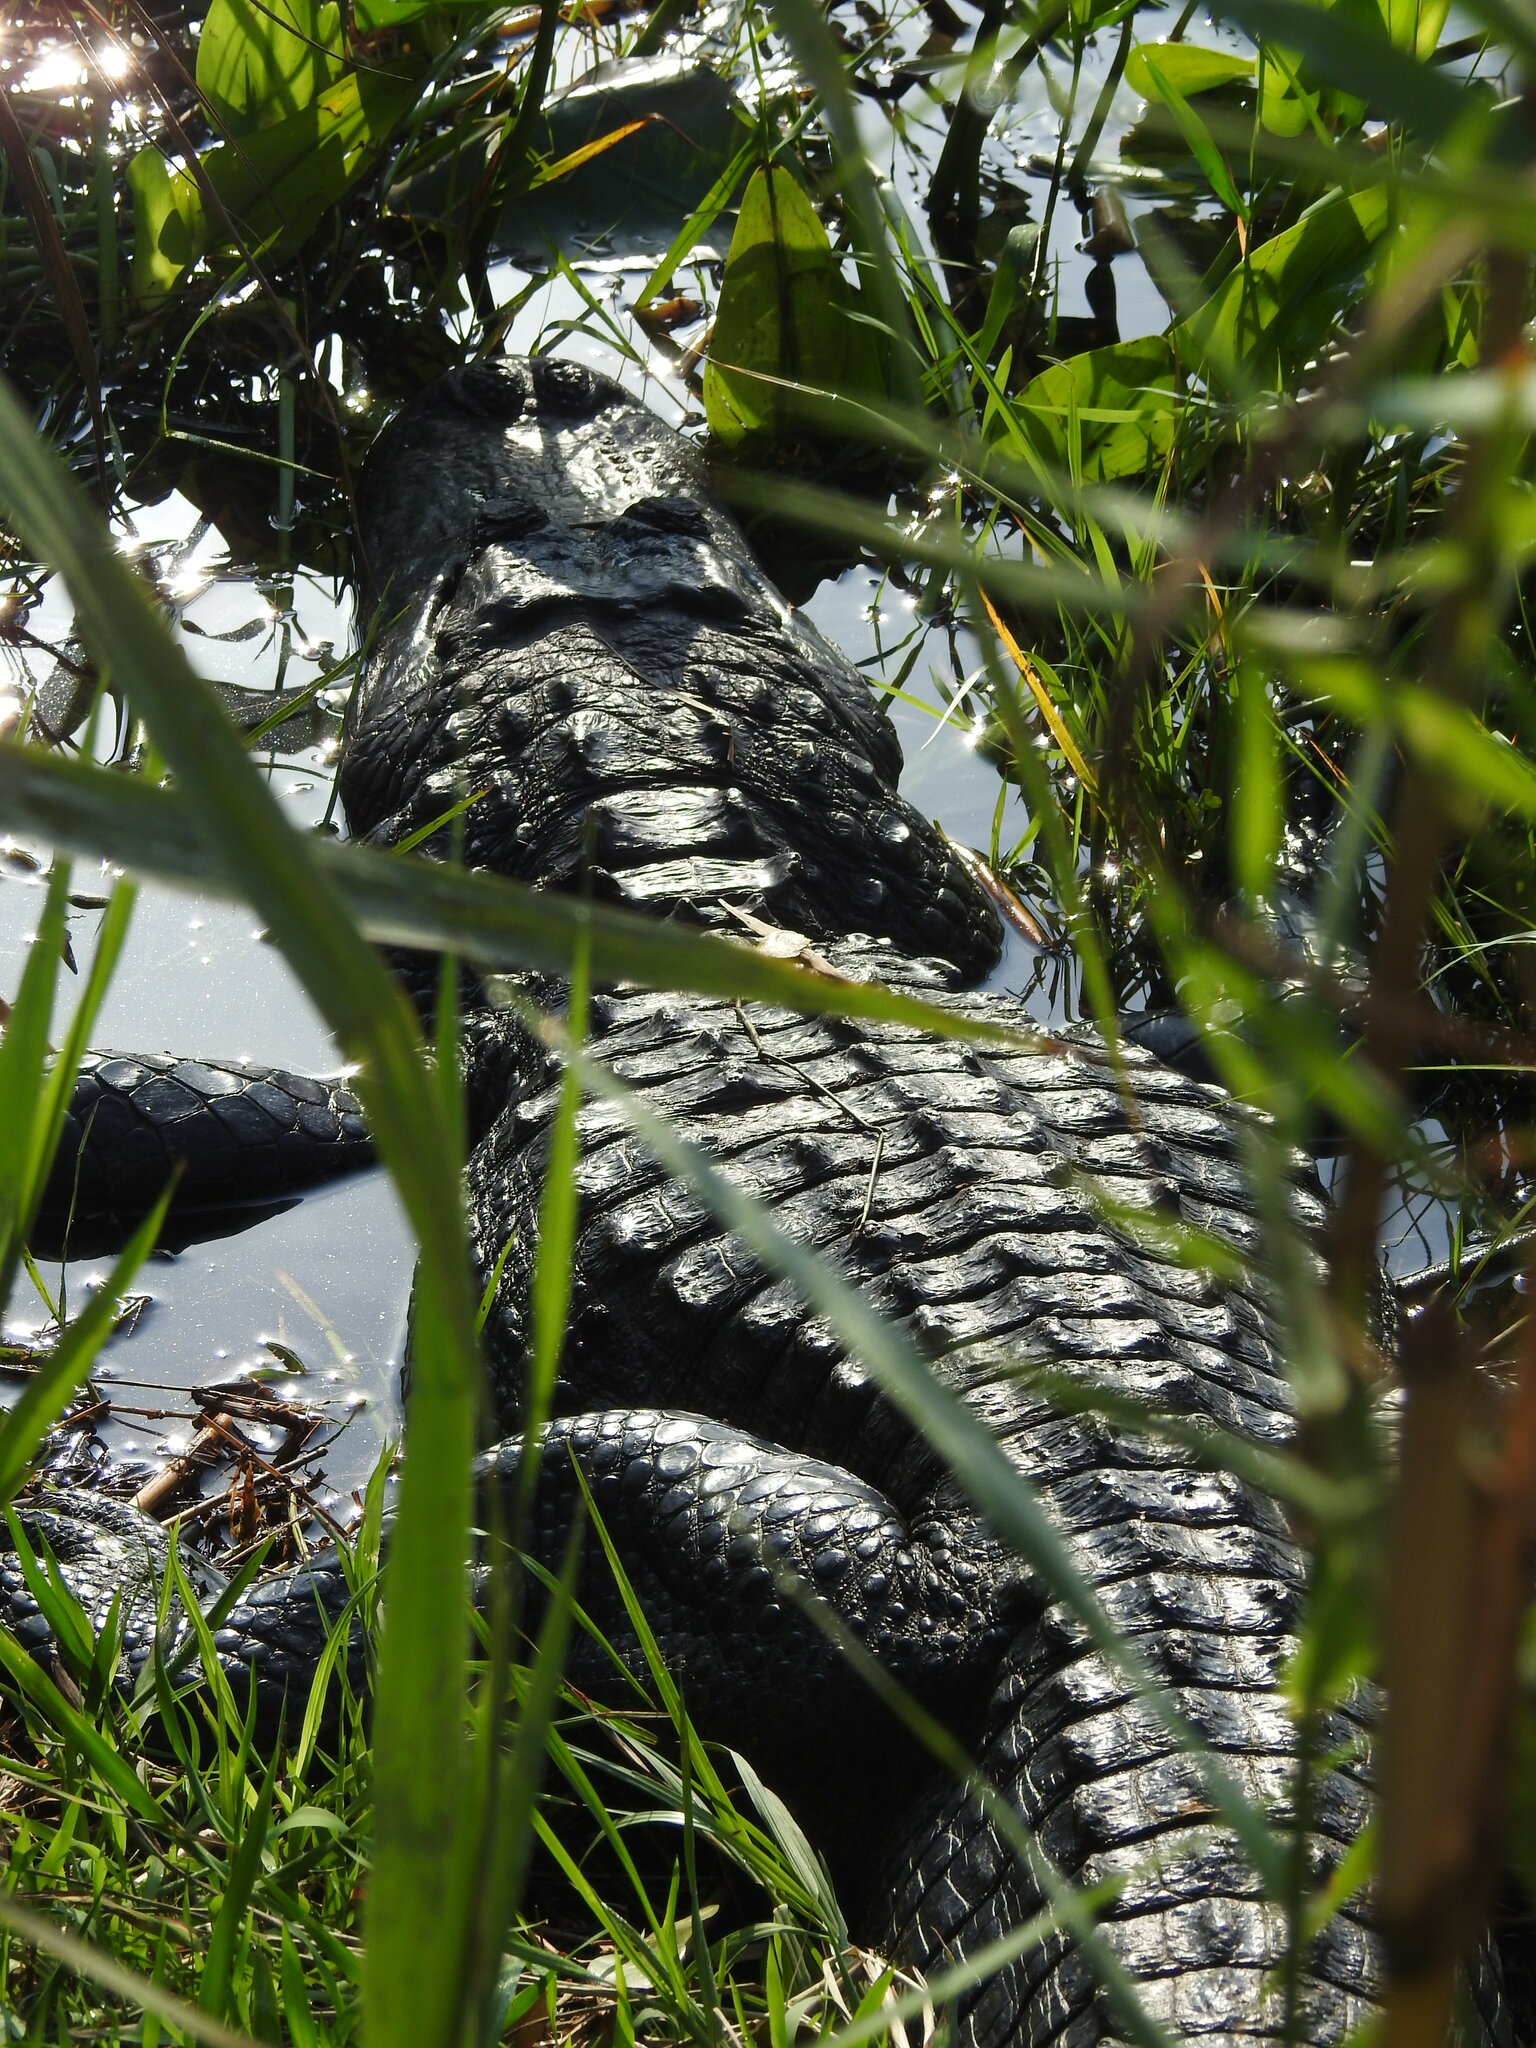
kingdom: Animalia
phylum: Chordata
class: Crocodylia
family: Alligatoridae
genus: Alligator
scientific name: Alligator mississippiensis
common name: American alligator
